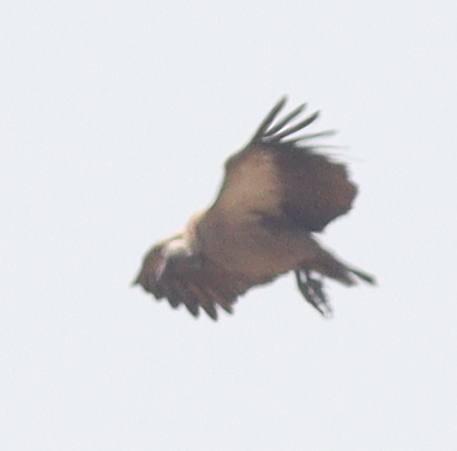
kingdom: Animalia
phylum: Chordata
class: Aves
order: Accipitriformes
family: Accipitridae
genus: Gyps
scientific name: Gyps africanus
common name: White-backed vulture
